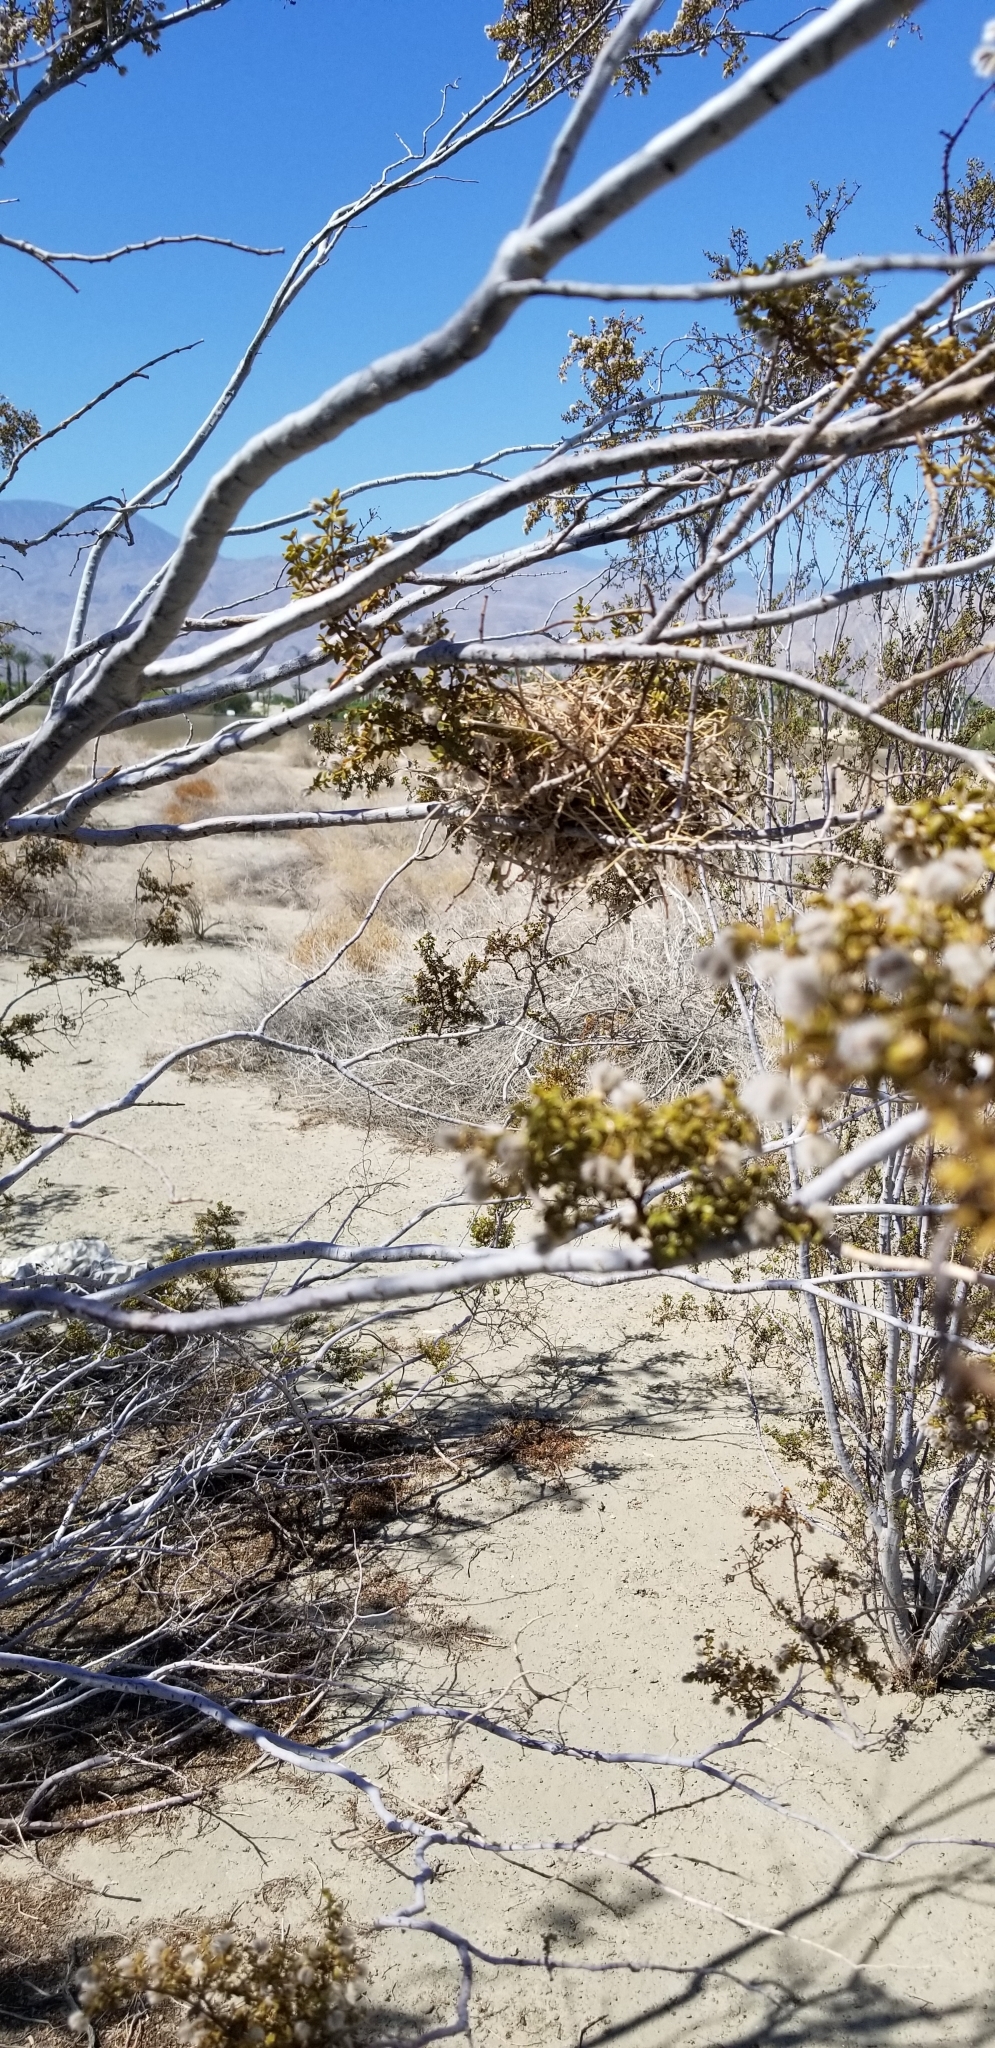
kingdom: Animalia
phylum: Chordata
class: Aves
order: Passeriformes
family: Remizidae
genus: Auriparus
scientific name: Auriparus flaviceps
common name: Verdin
